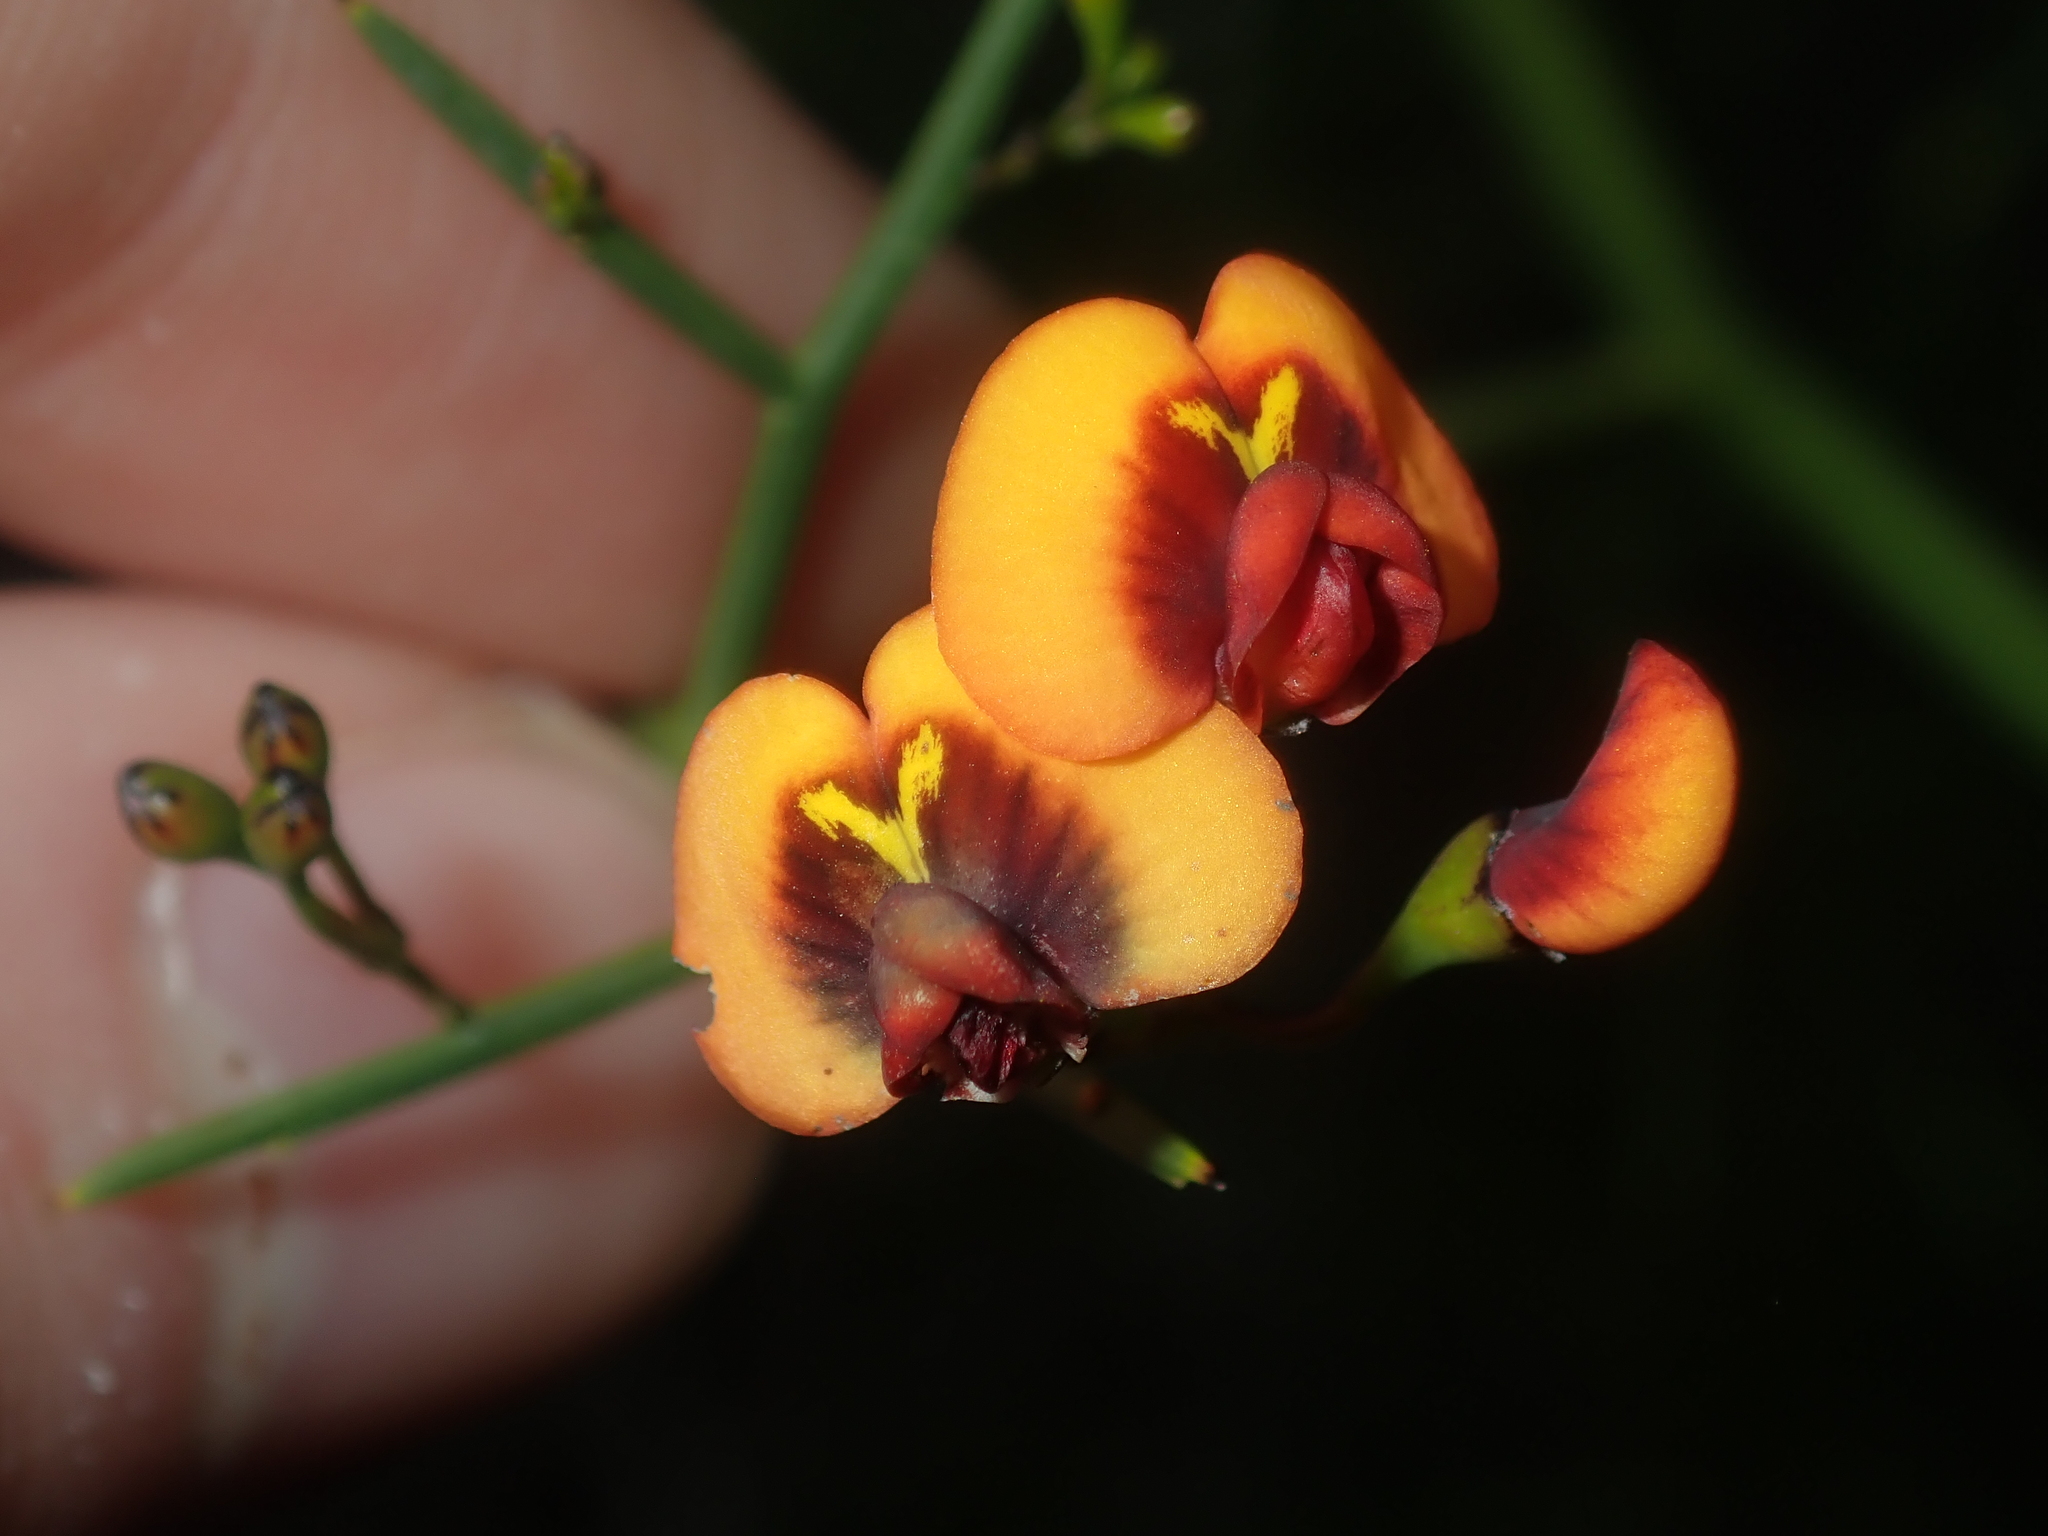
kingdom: Plantae
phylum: Tracheophyta
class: Magnoliopsida
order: Fabales
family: Fabaceae
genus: Daviesia
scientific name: Daviesia divaricata
